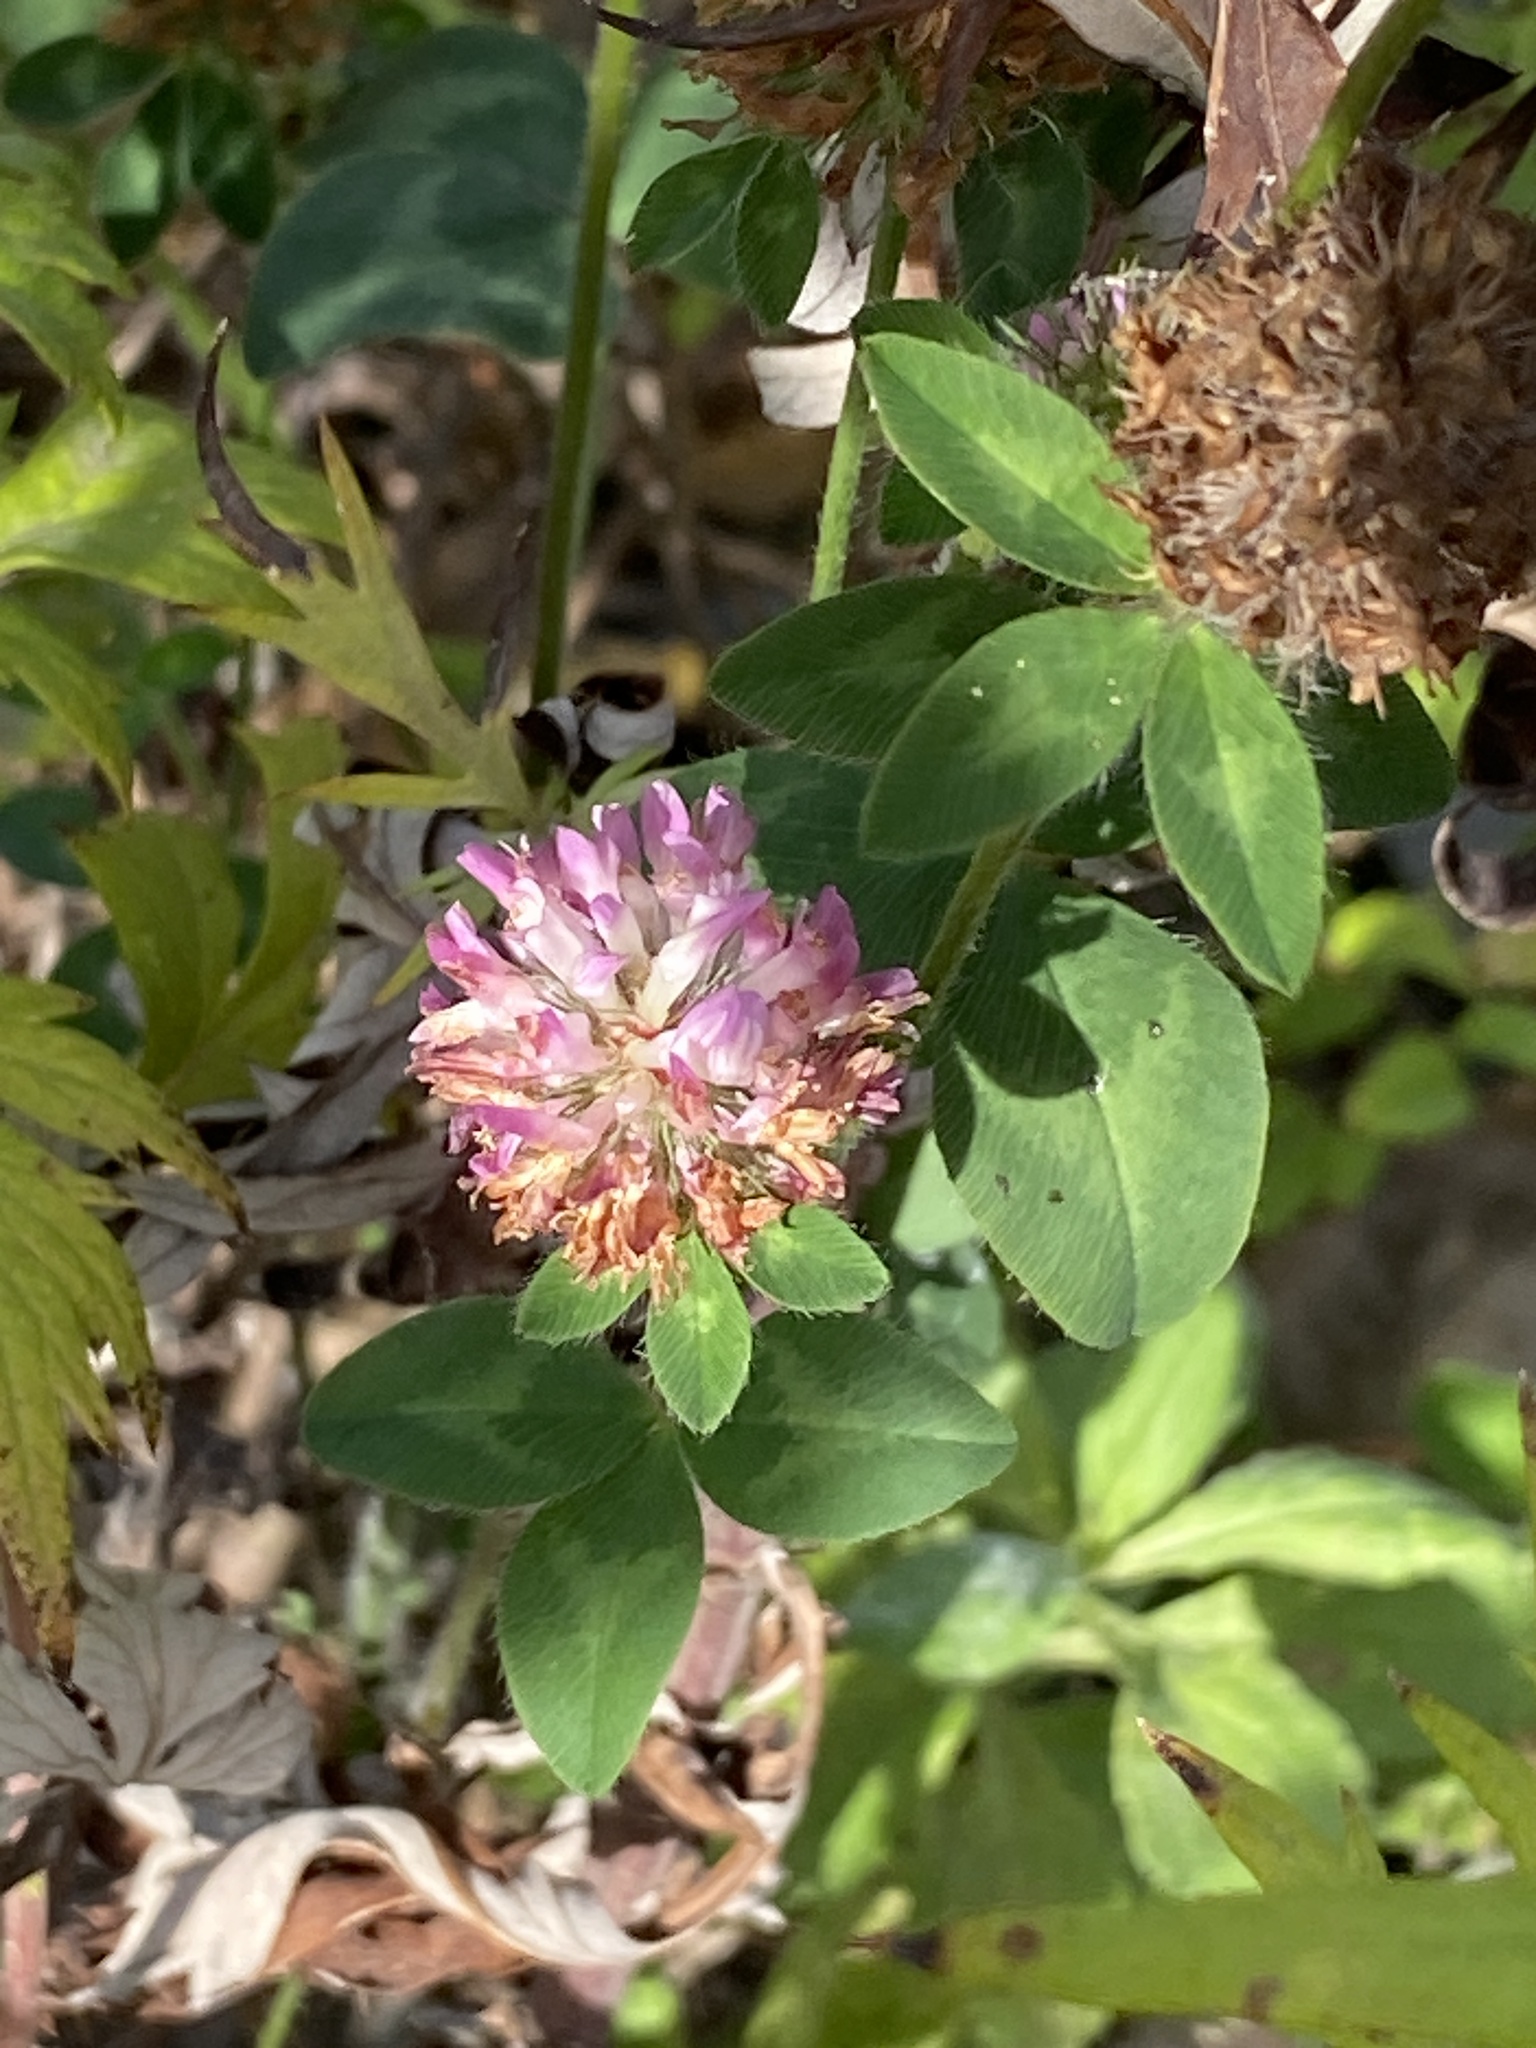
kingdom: Plantae
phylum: Tracheophyta
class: Magnoliopsida
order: Fabales
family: Fabaceae
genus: Trifolium
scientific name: Trifolium pratense
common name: Red clover
